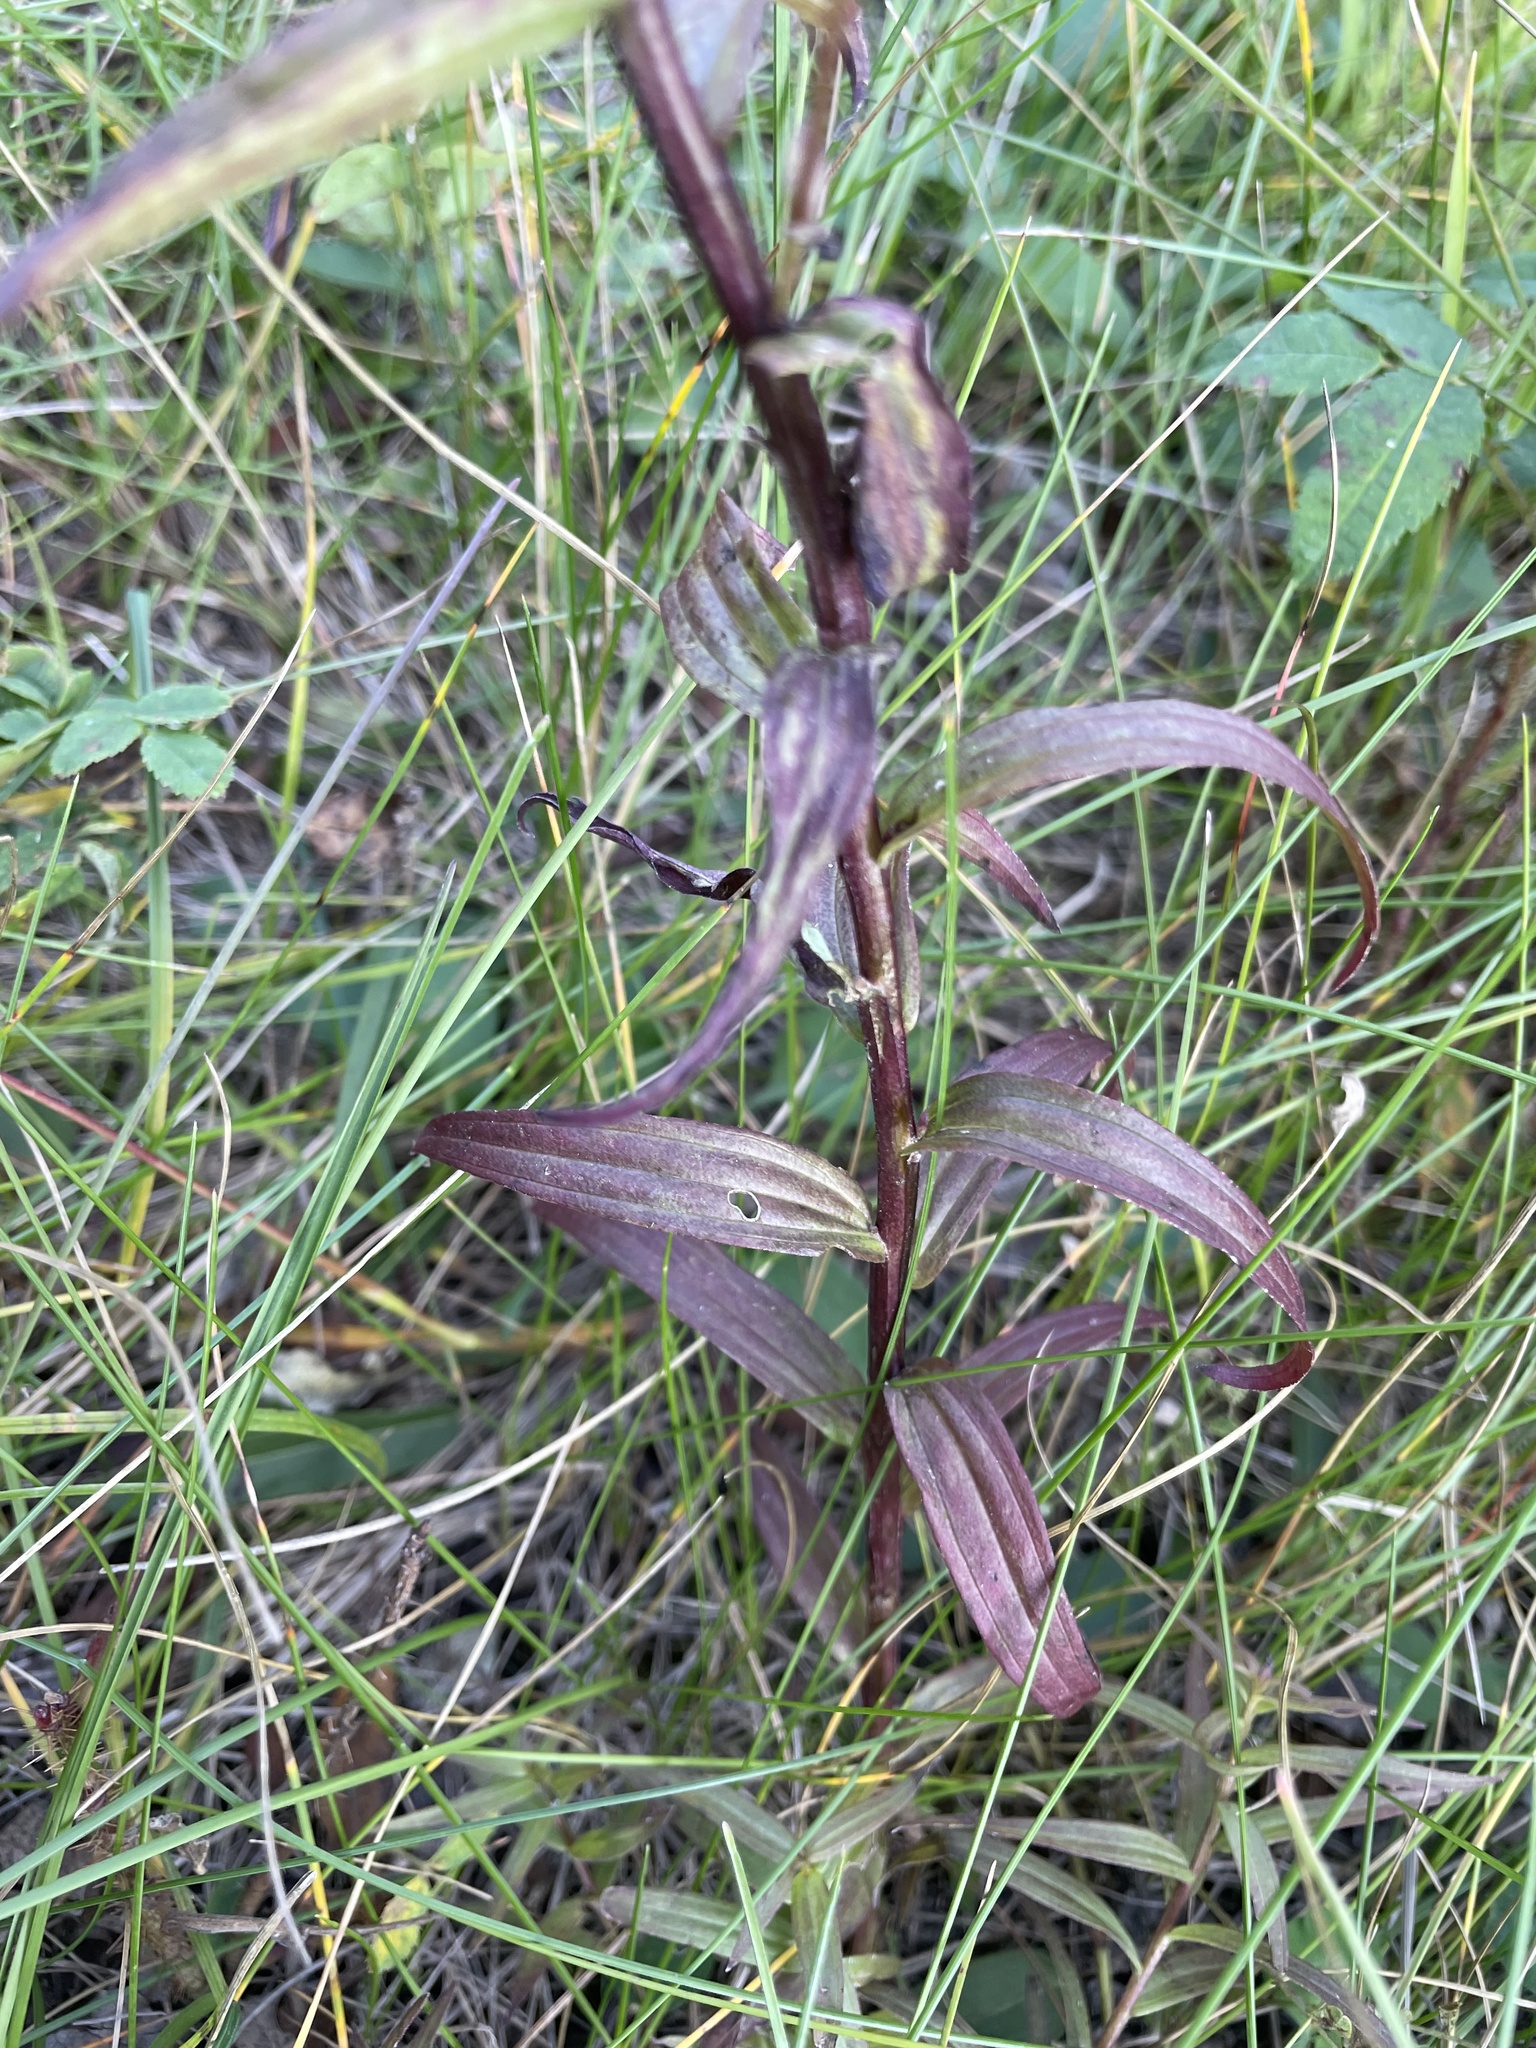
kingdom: Plantae
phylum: Tracheophyta
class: Magnoliopsida
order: Lamiales
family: Orobanchaceae
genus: Castilleja
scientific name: Castilleja miniata
